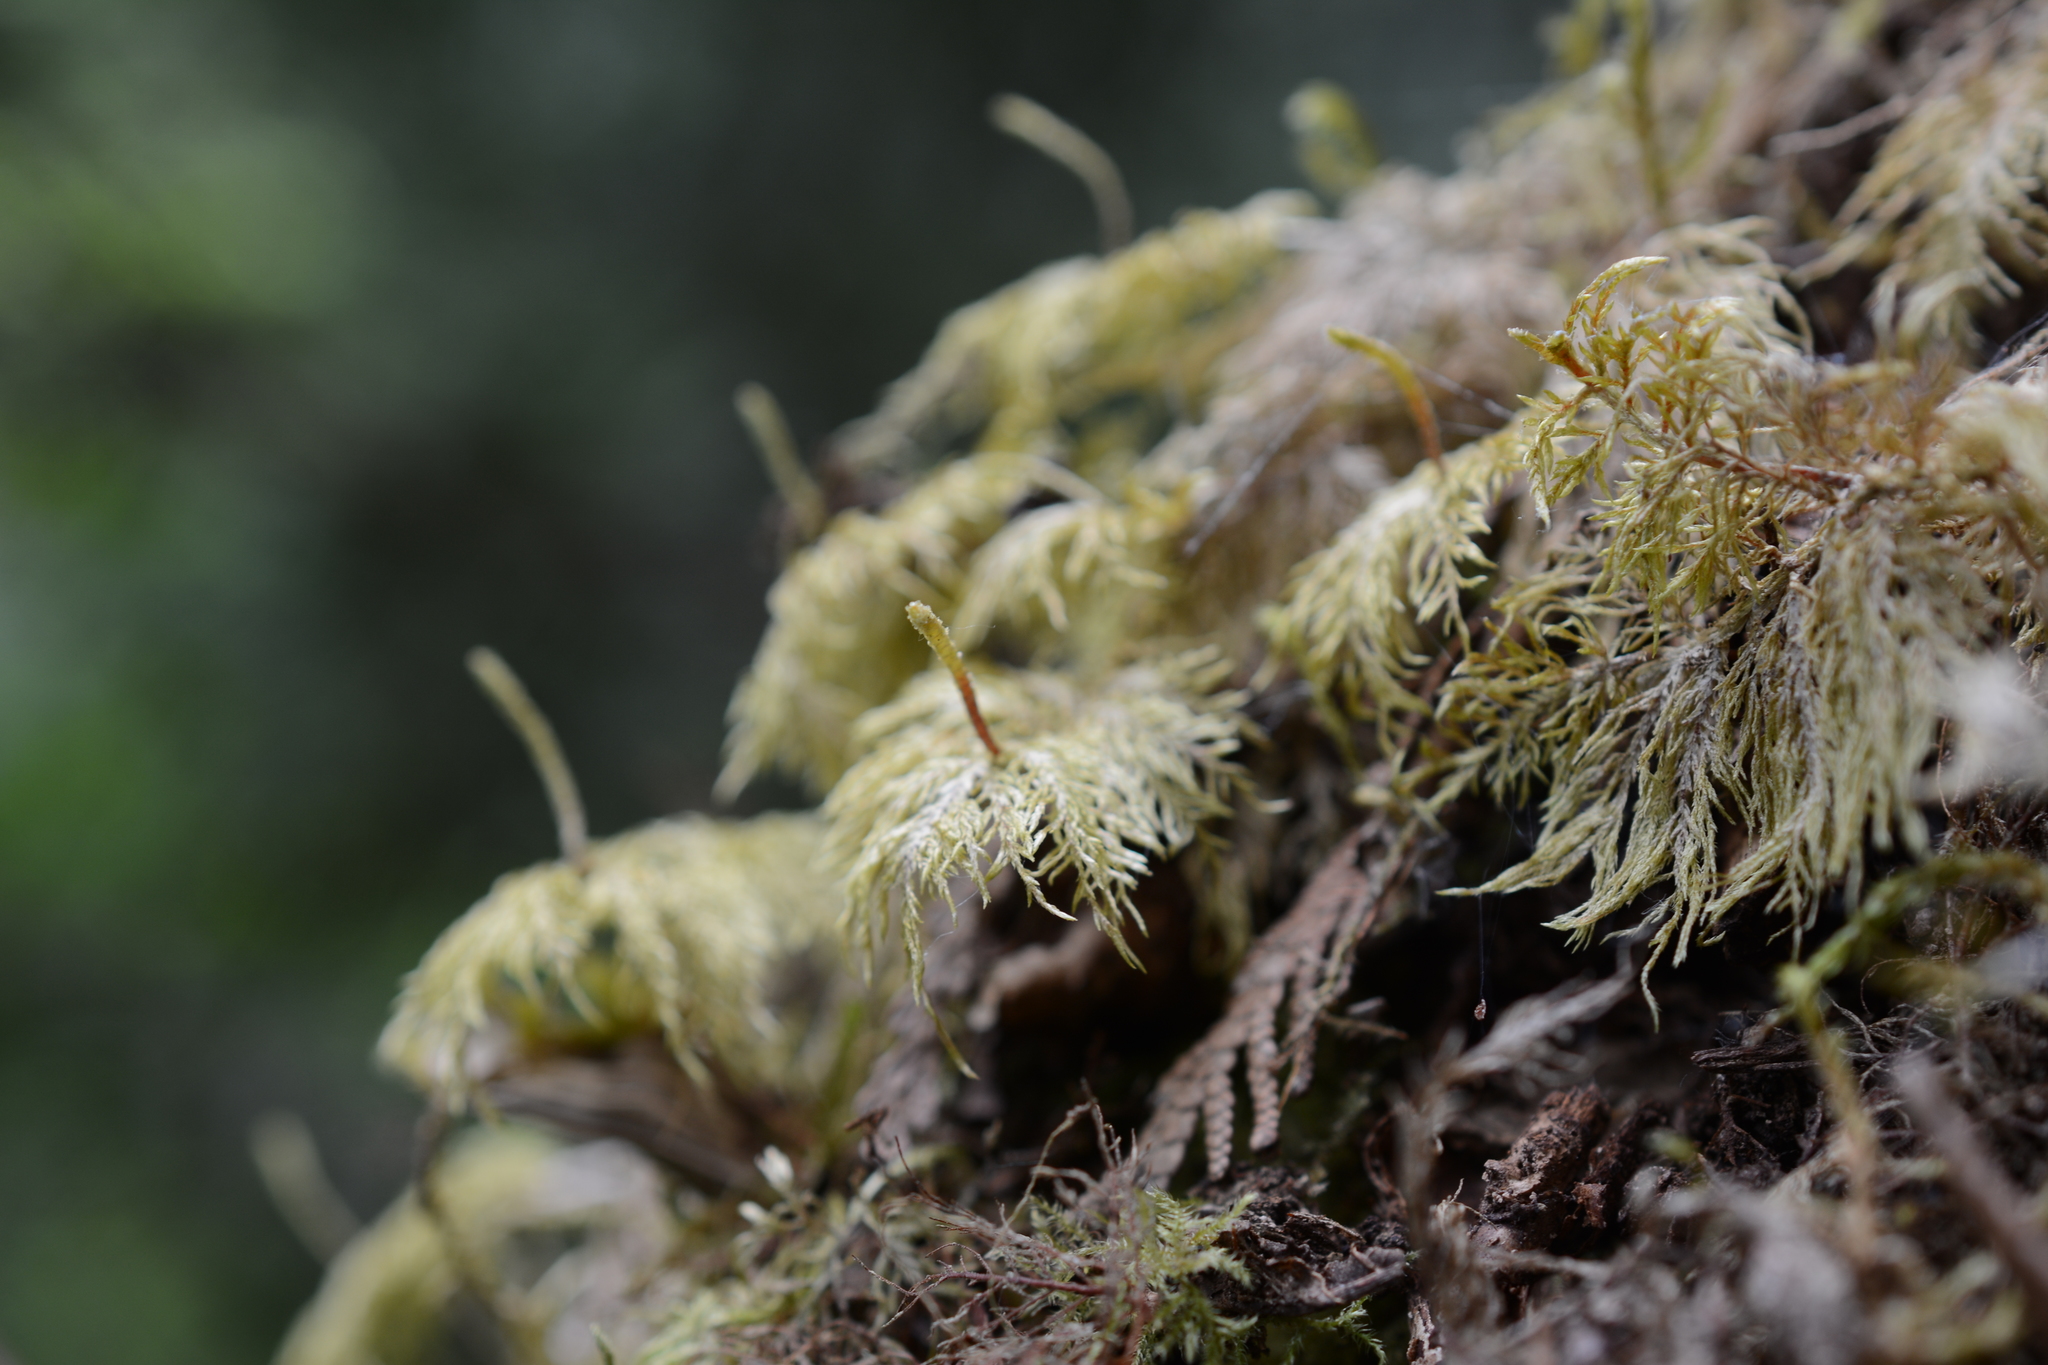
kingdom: Plantae
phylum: Bryophyta
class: Bryopsida
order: Hypnales
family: Hylocomiaceae
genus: Hylocomium
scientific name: Hylocomium splendens
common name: Stairstep moss
